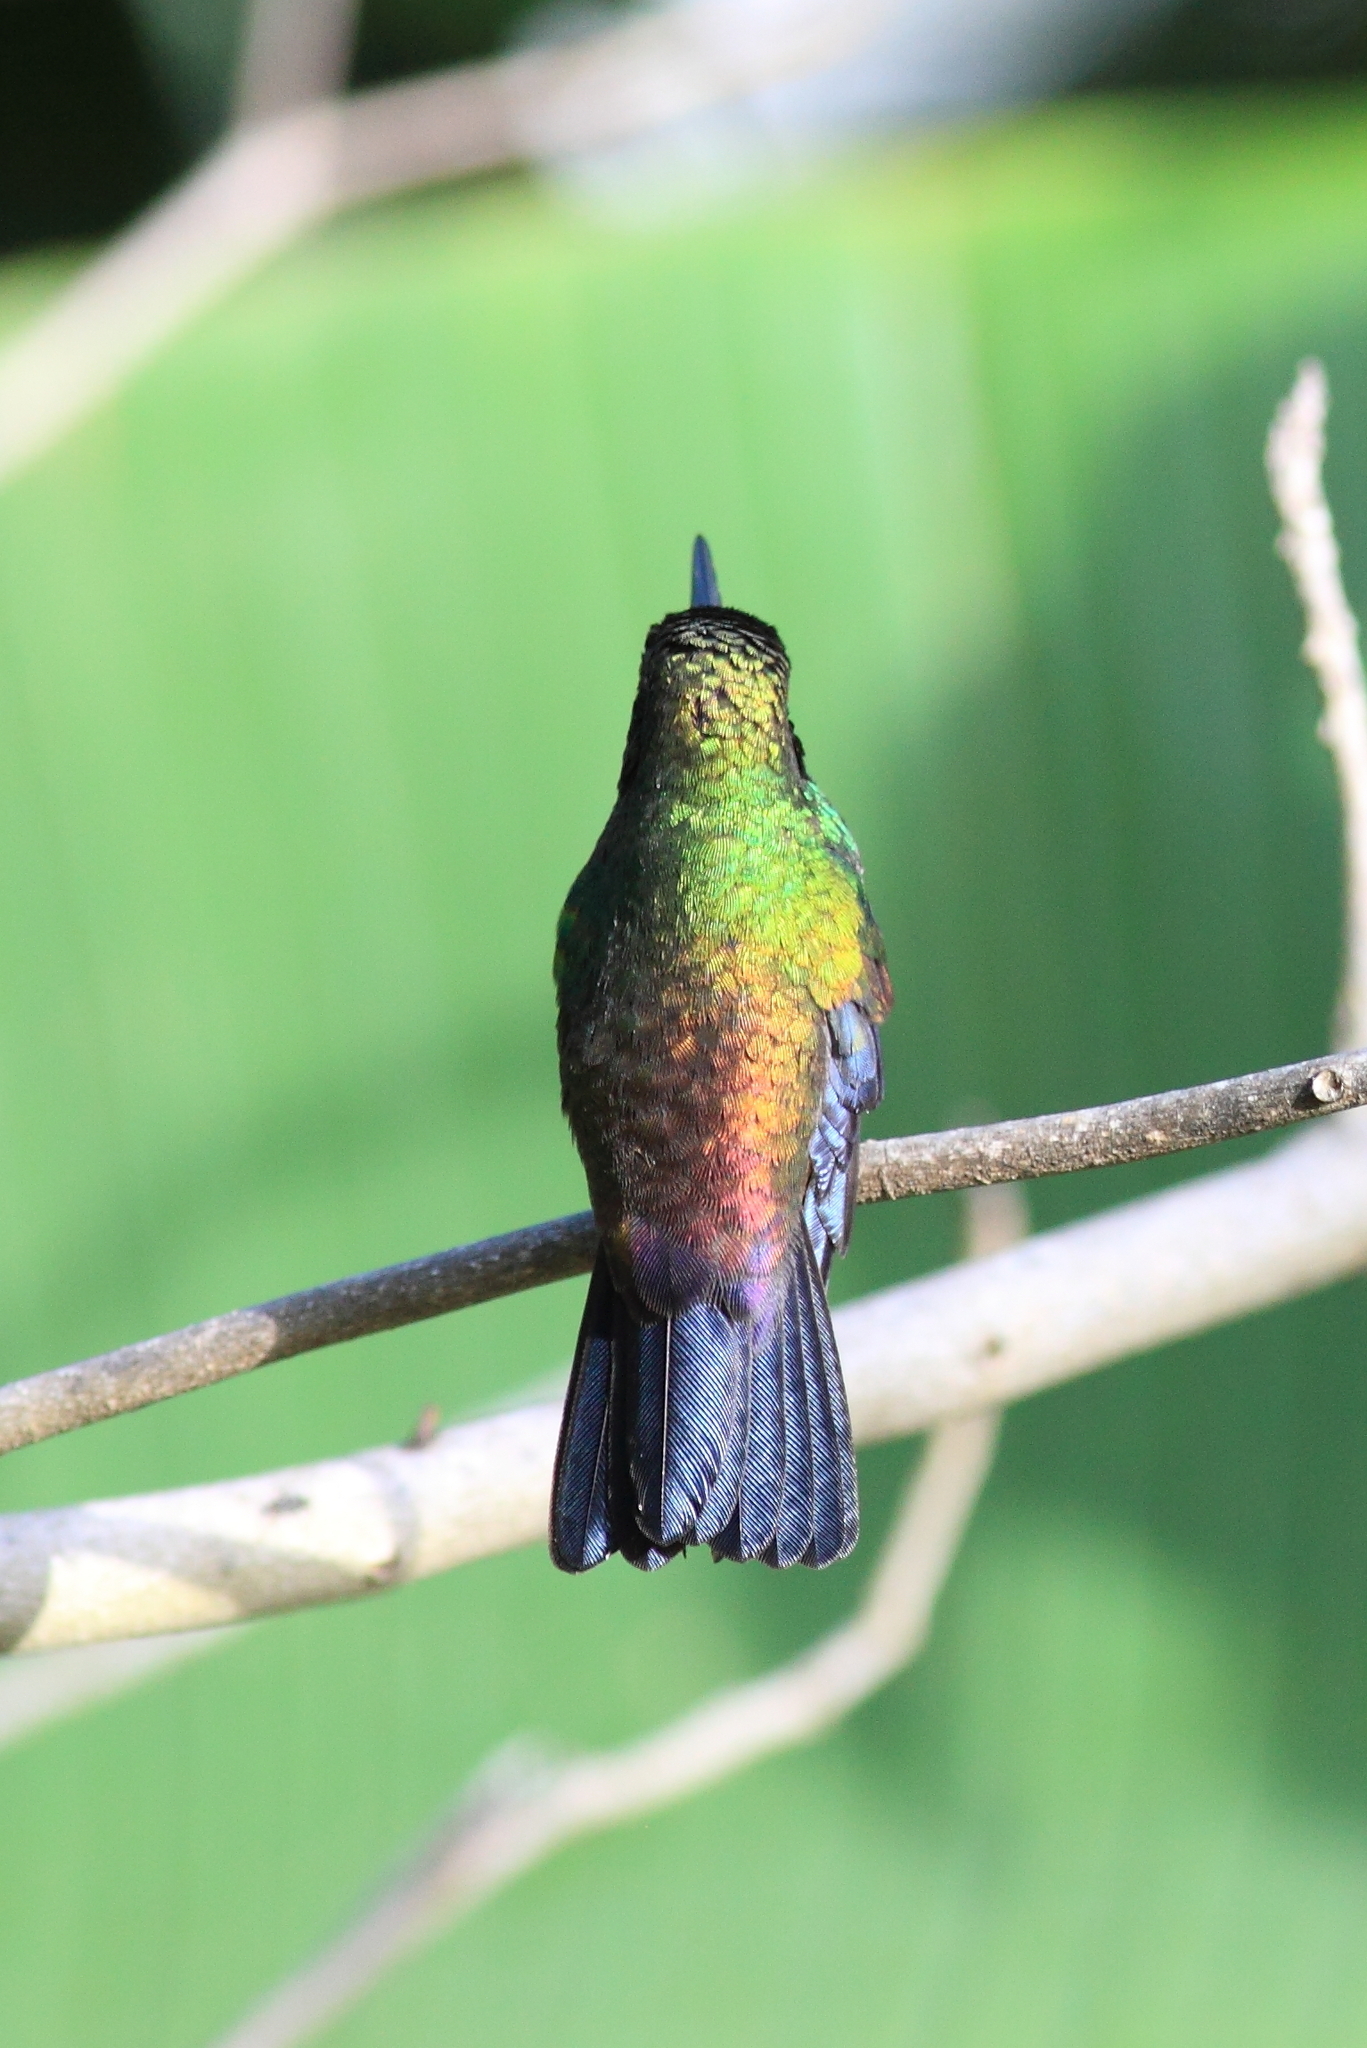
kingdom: Animalia
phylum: Chordata
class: Aves
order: Apodiformes
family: Trochilidae
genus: Saucerottia
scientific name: Saucerottia tobaci
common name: Copper-rumped hummingbird
